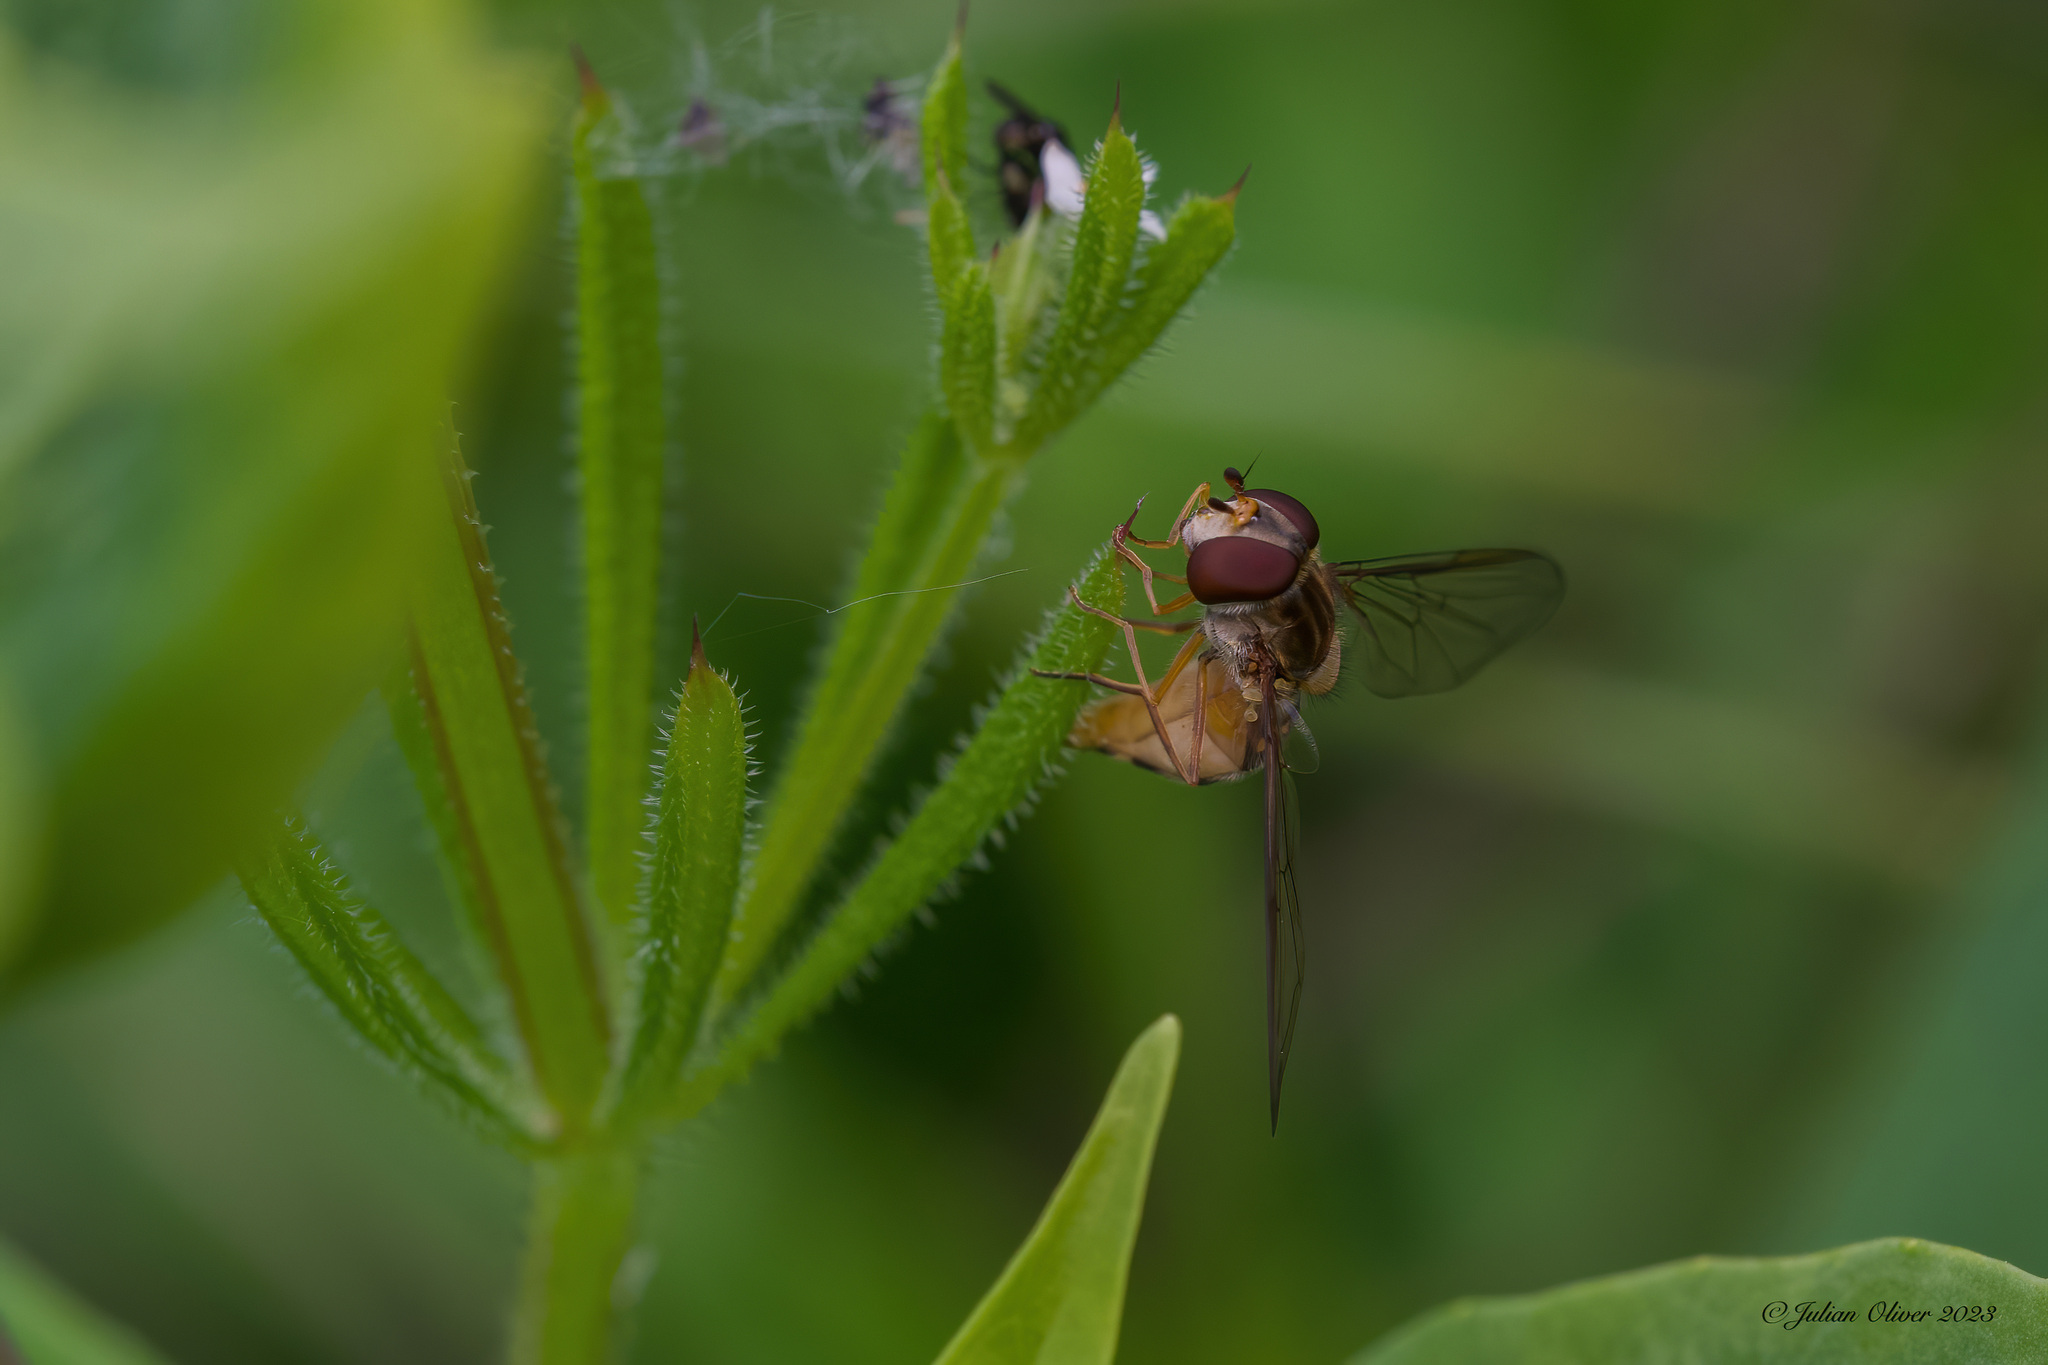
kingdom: Animalia
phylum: Arthropoda
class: Insecta
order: Diptera
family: Syrphidae
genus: Episyrphus
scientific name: Episyrphus balteatus
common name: Marmalade hoverfly
